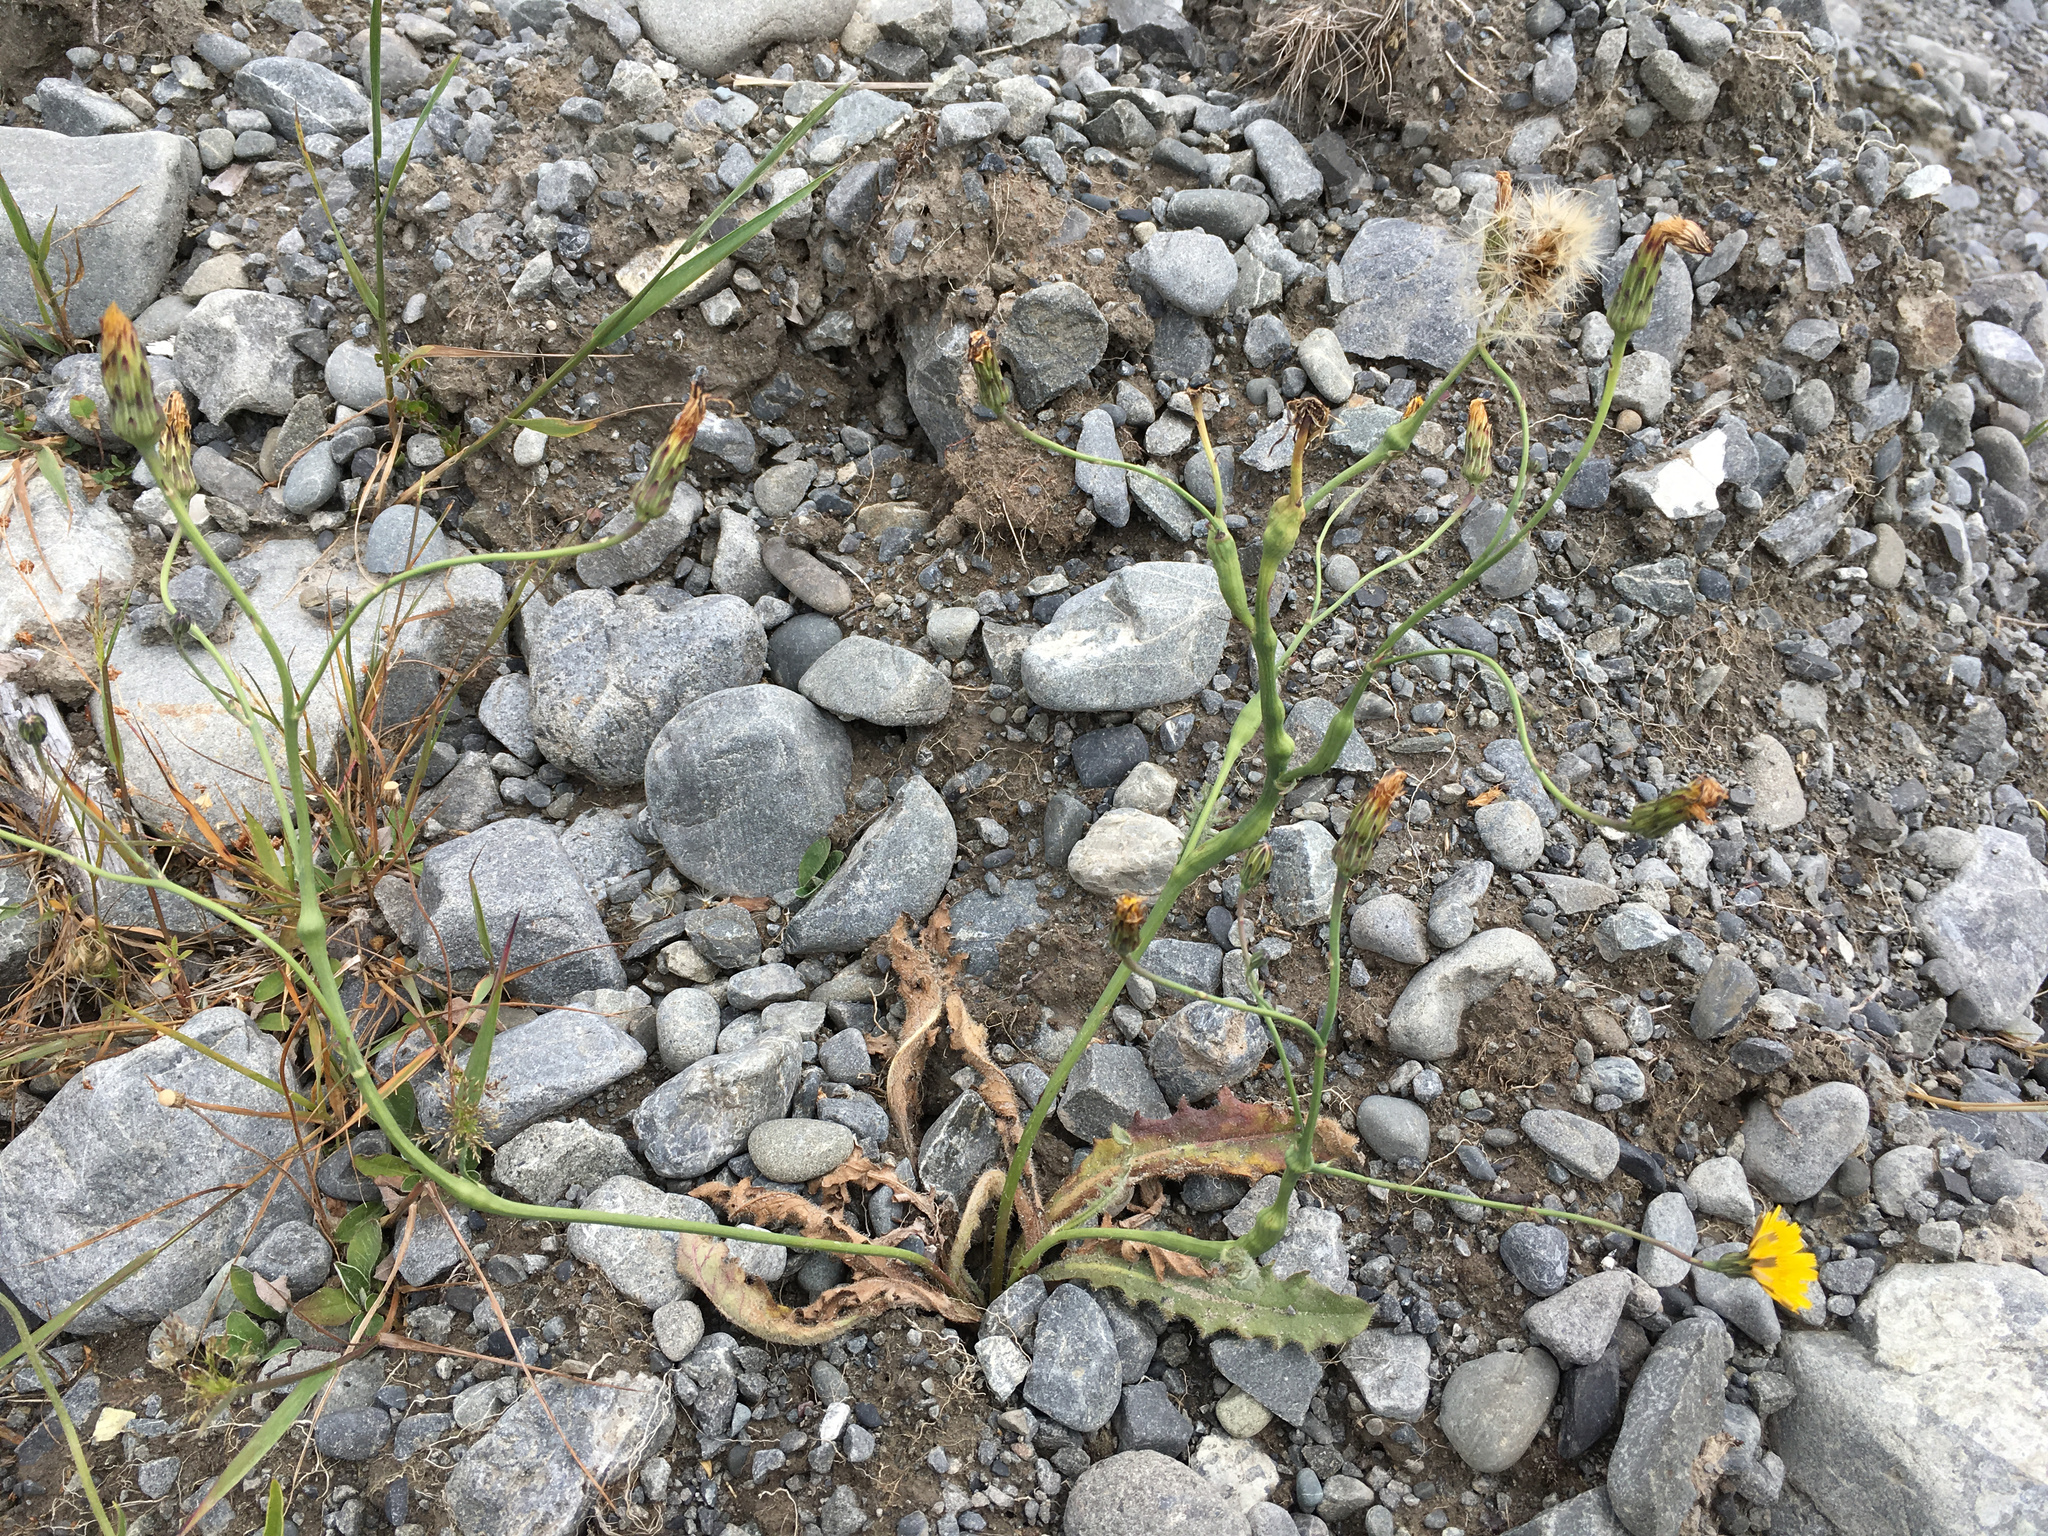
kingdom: Plantae
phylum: Tracheophyta
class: Magnoliopsida
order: Asterales
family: Asteraceae
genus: Hypochaeris
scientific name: Hypochaeris radicata
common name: Flatweed
